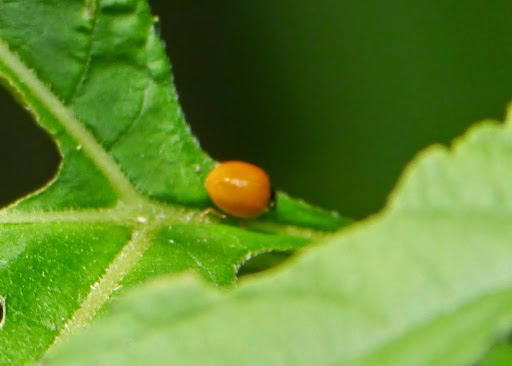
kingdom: Animalia
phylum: Arthropoda
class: Insecta
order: Coleoptera
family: Coccinellidae
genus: Cycloneda
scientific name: Cycloneda sanguinea
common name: Ladybird beetle
